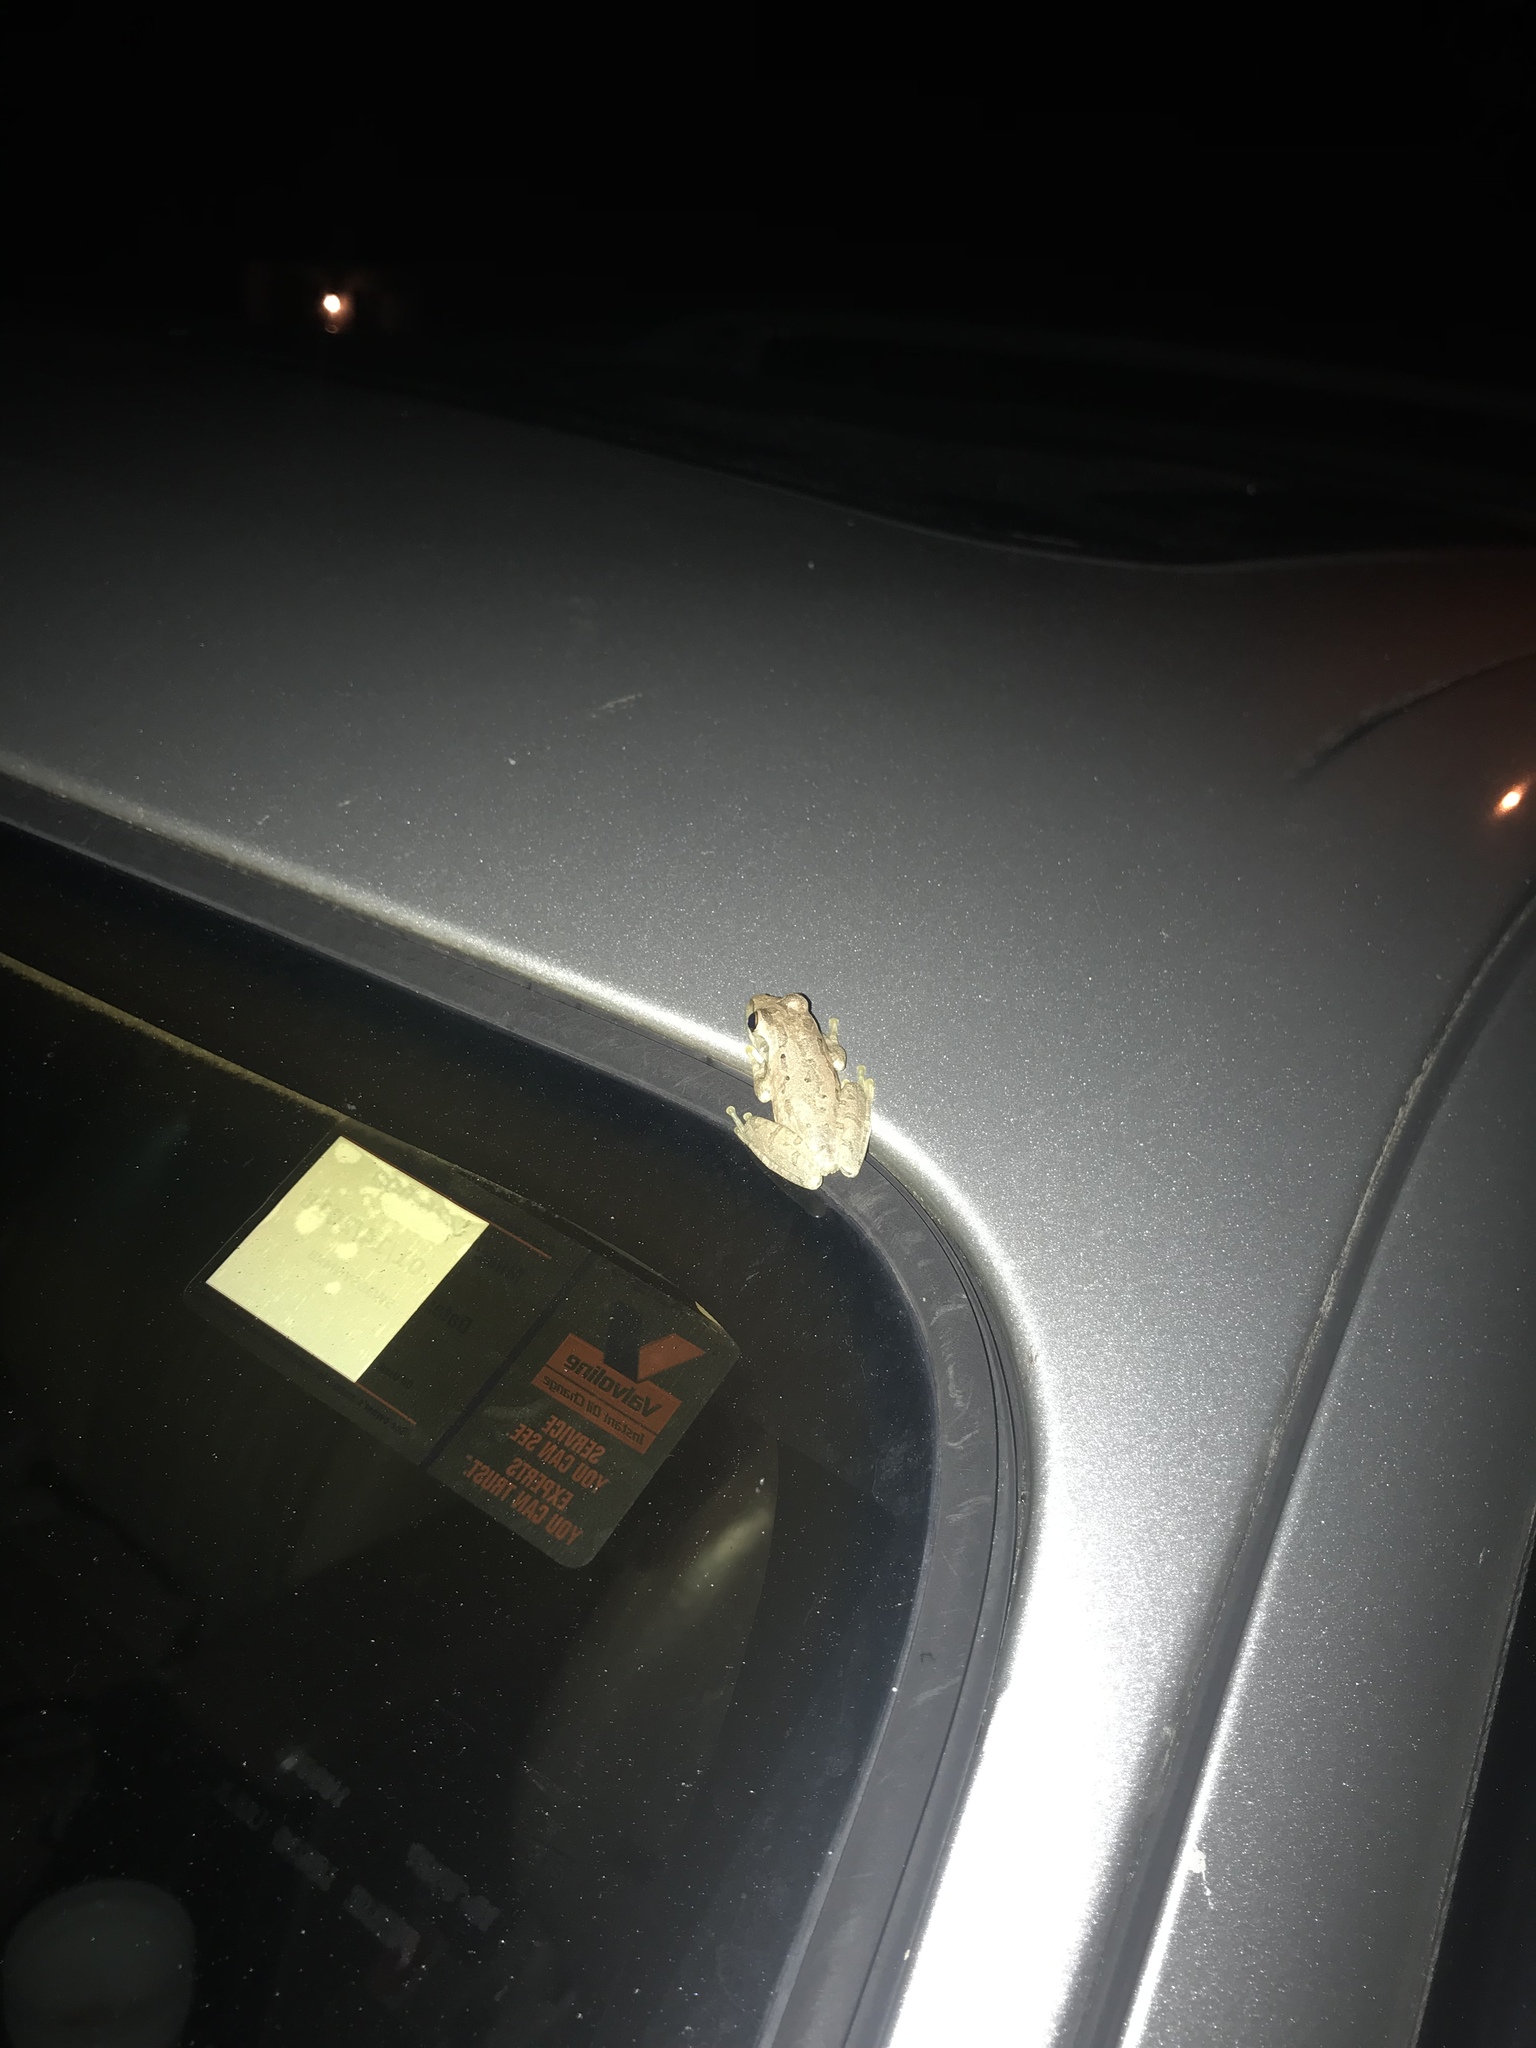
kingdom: Animalia
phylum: Chordata
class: Amphibia
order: Anura
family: Hylidae
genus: Osteopilus
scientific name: Osteopilus septentrionalis
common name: Cuban treefrog
